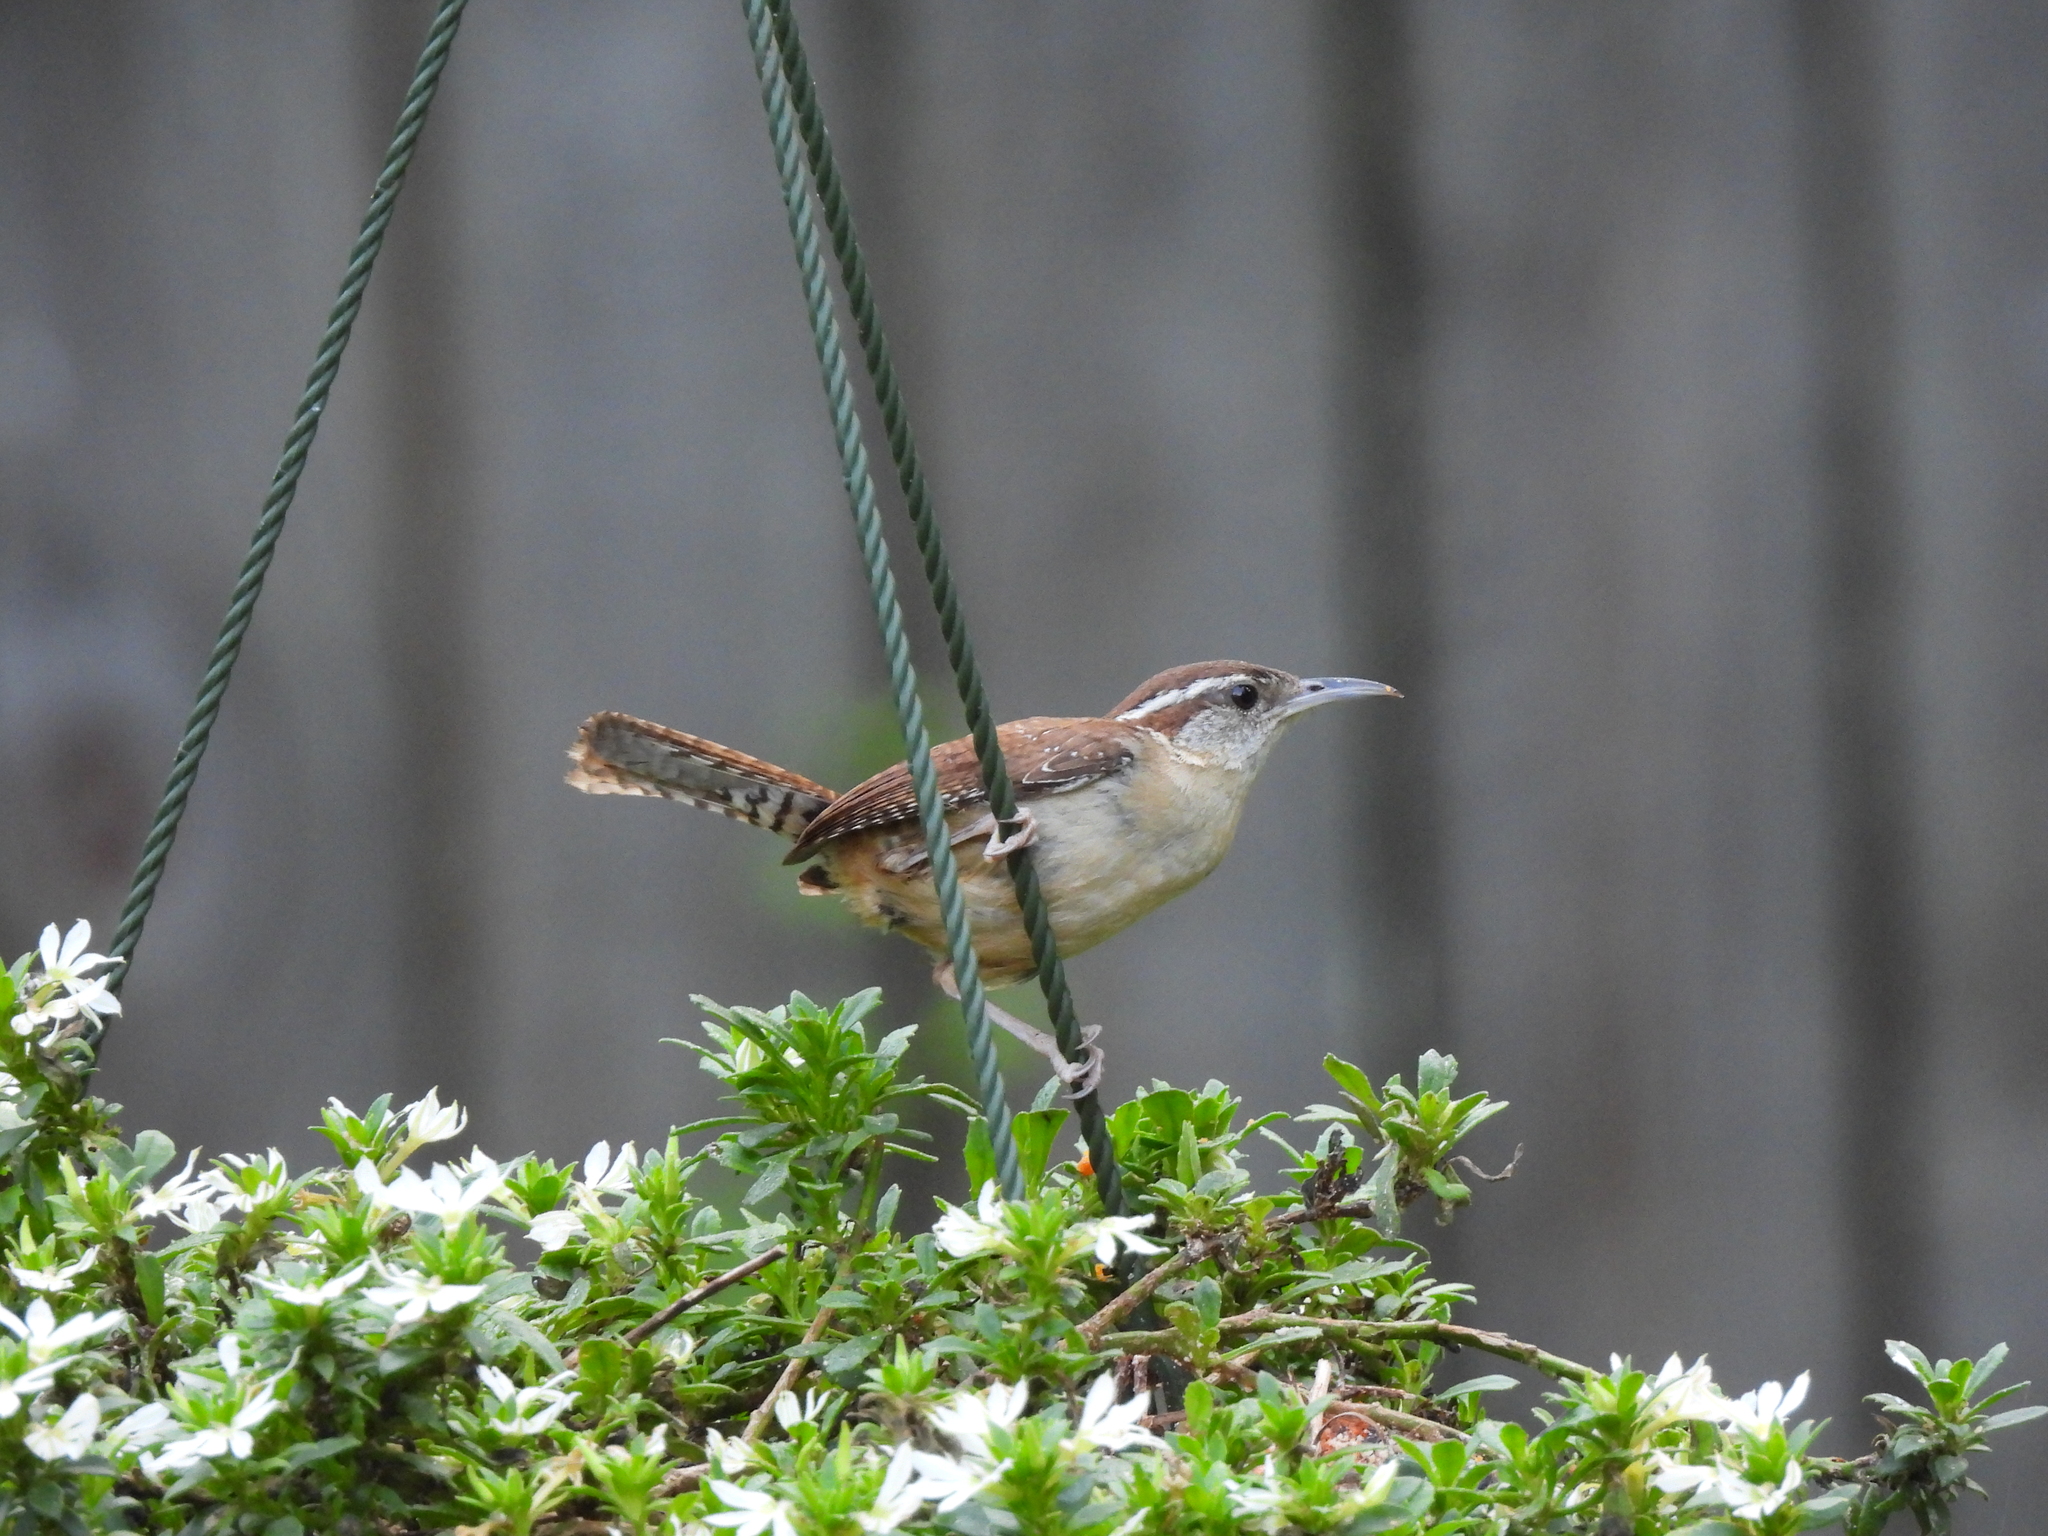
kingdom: Animalia
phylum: Chordata
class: Aves
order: Passeriformes
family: Troglodytidae
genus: Thryothorus
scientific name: Thryothorus ludovicianus
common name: Carolina wren
